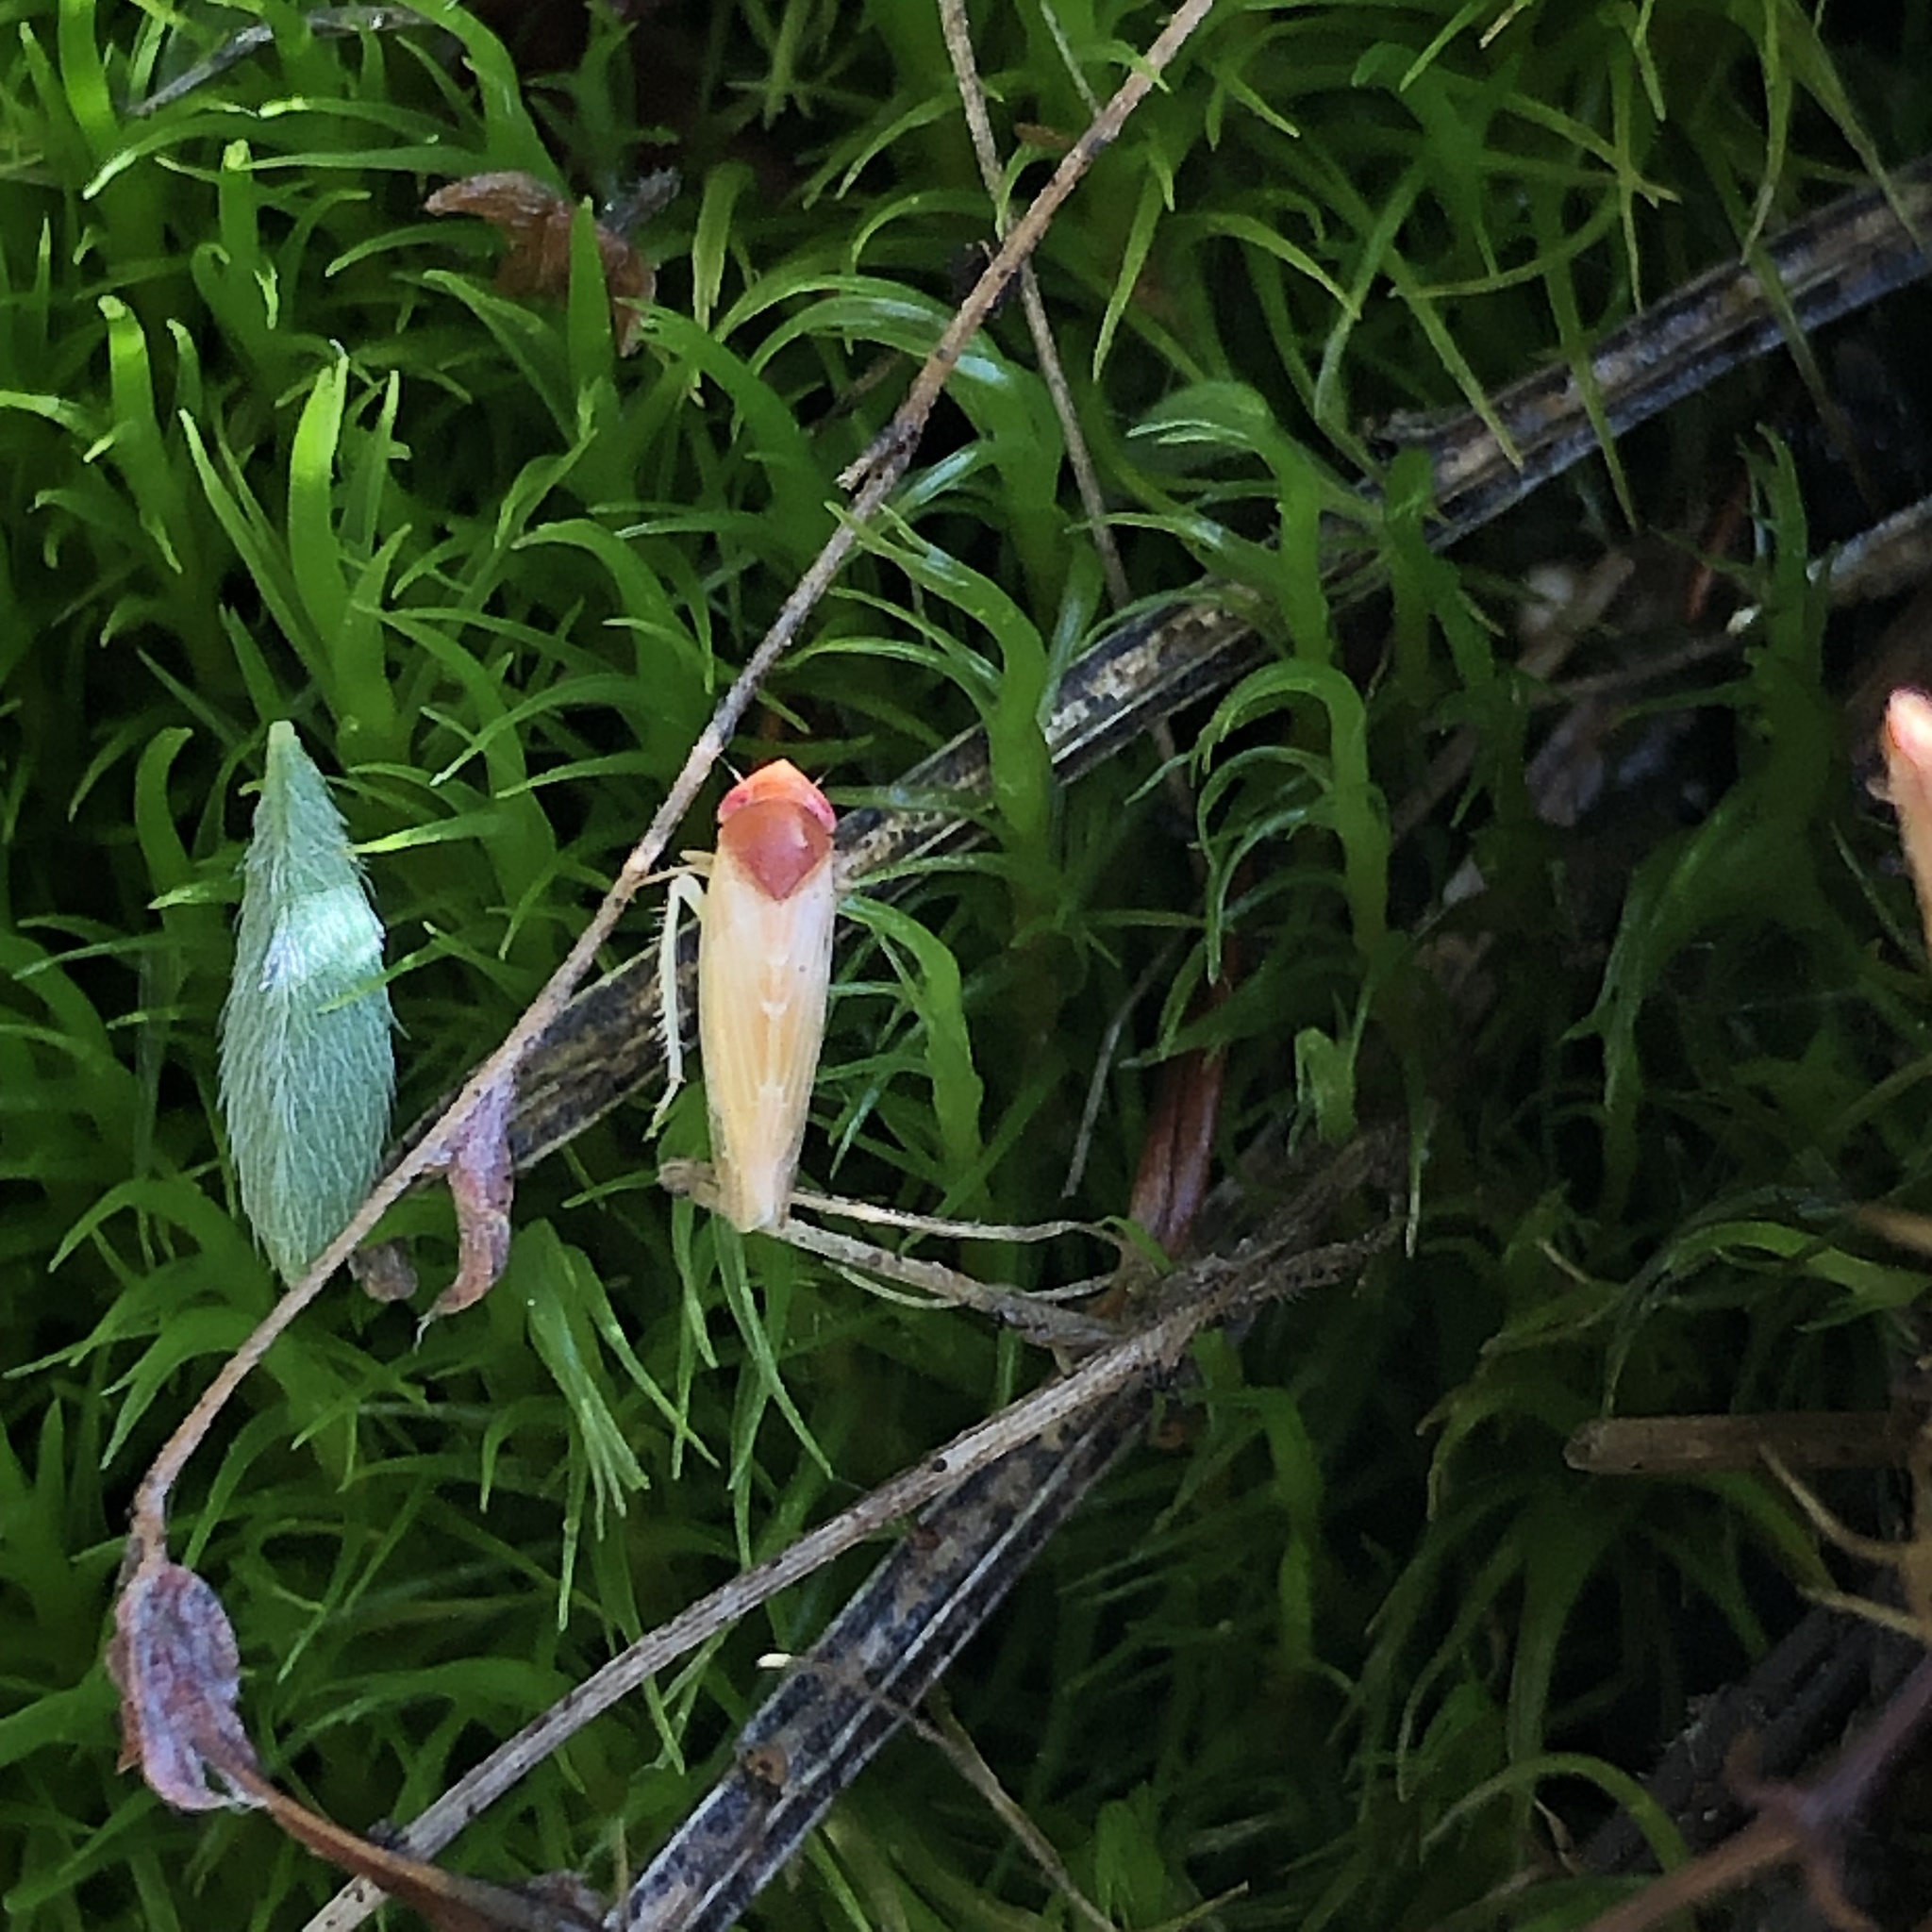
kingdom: Animalia
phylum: Arthropoda
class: Insecta
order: Hemiptera
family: Cicadellidae
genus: Colladonus
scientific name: Colladonus aureolus
